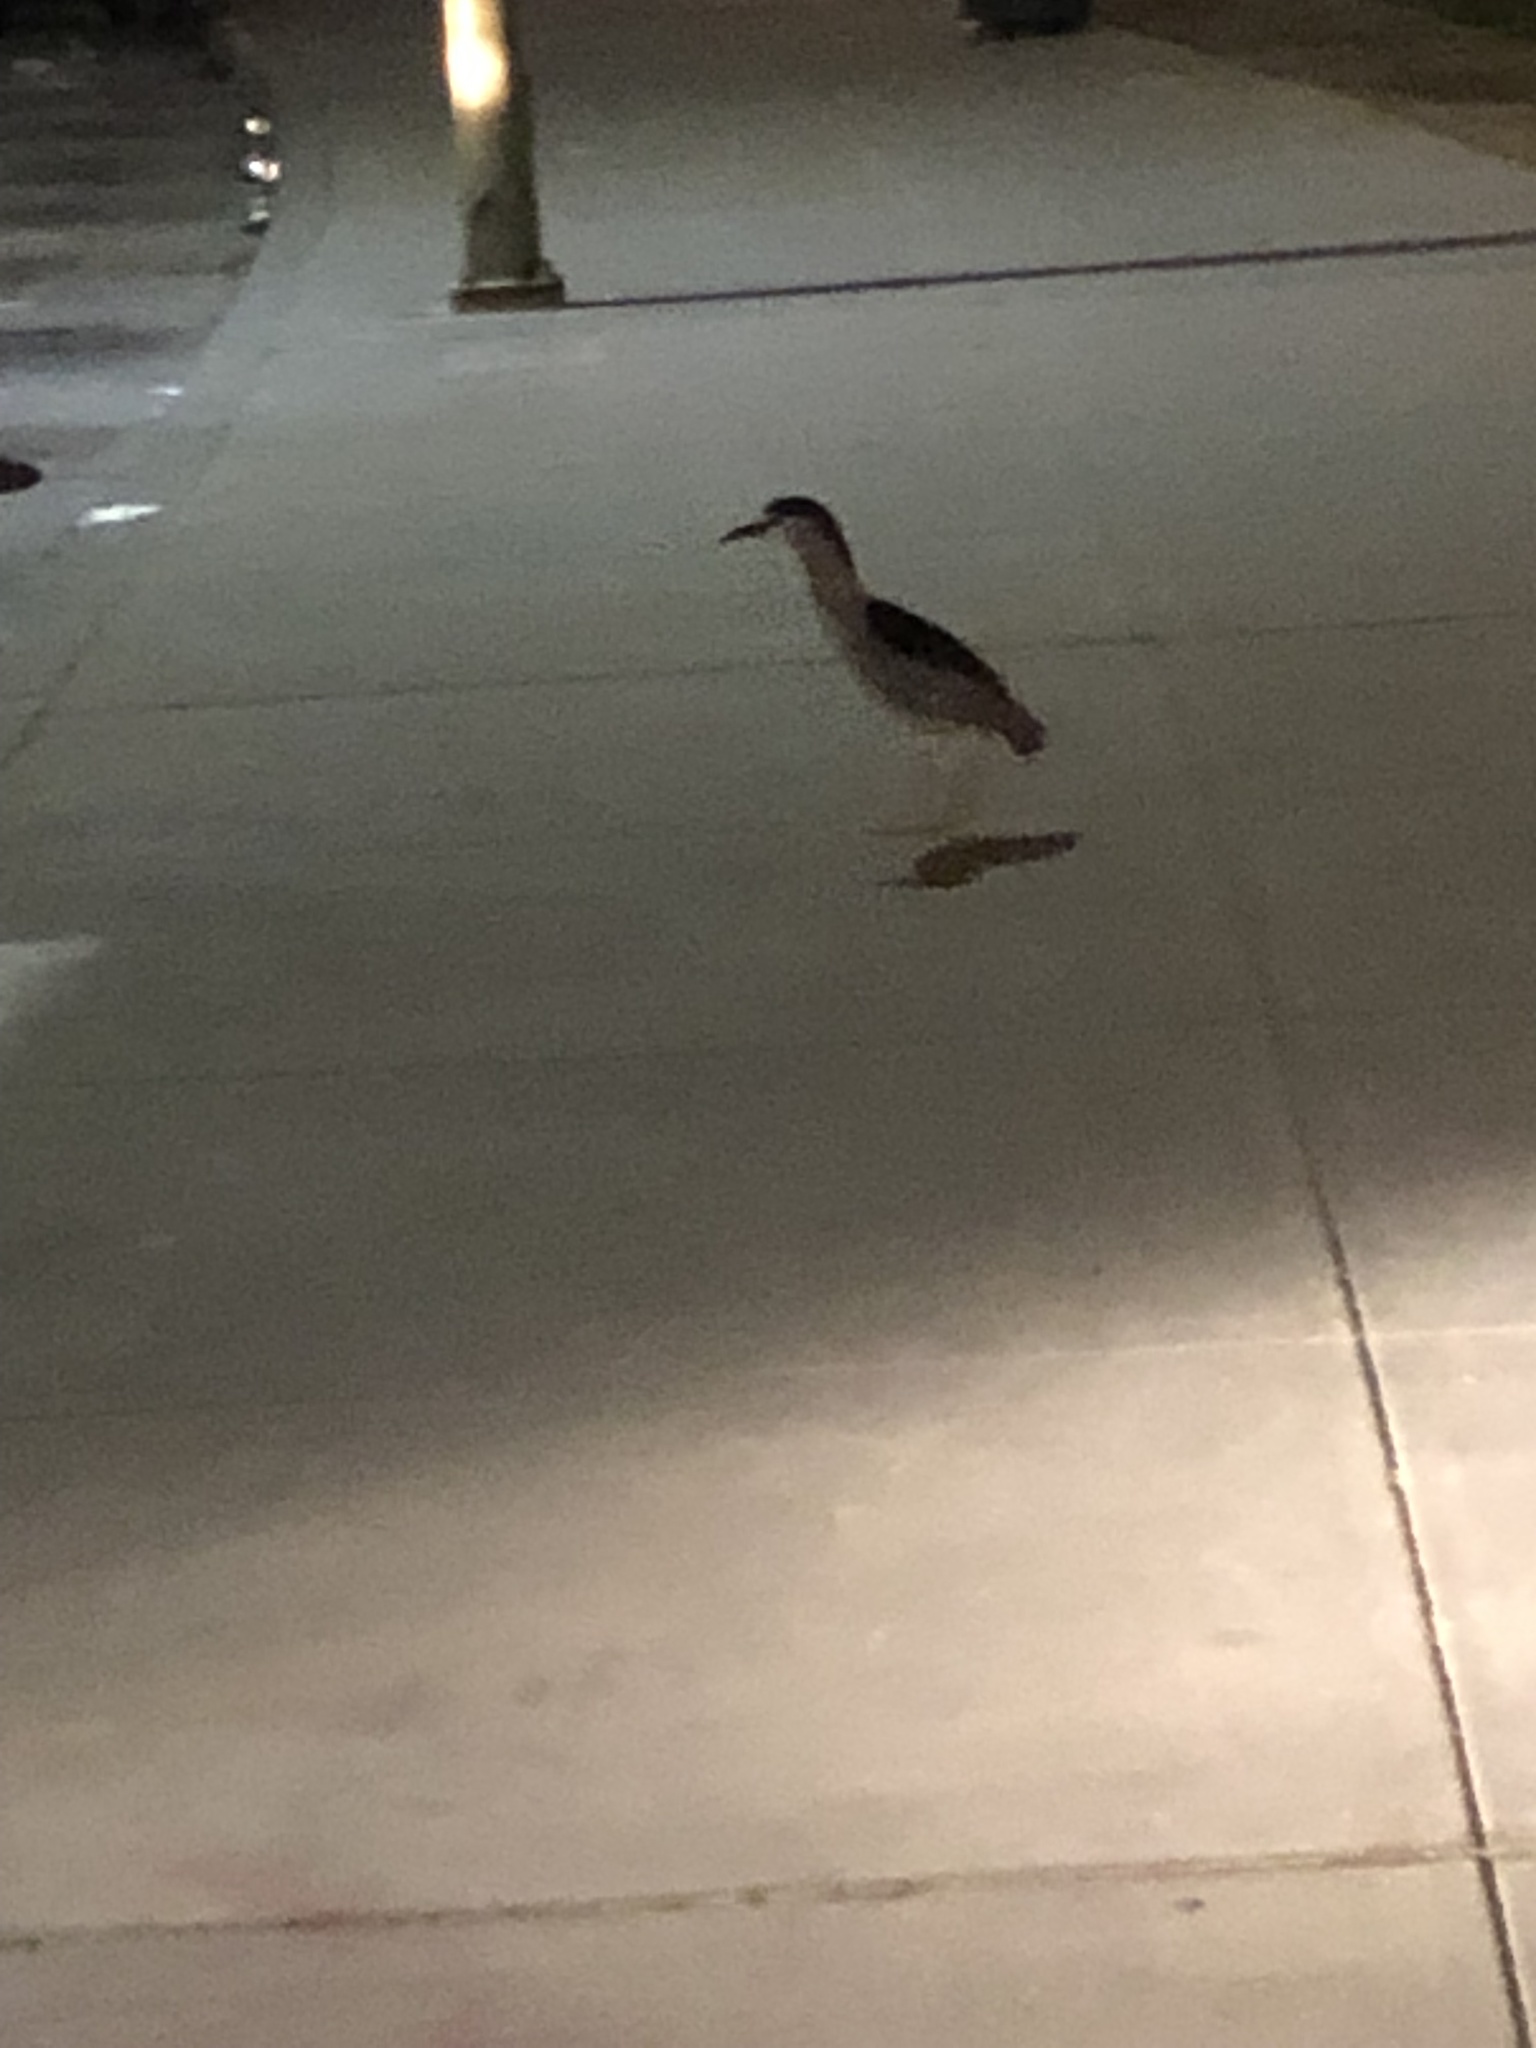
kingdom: Animalia
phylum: Chordata
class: Aves
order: Pelecaniformes
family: Ardeidae
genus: Nycticorax
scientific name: Nycticorax nycticorax
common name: Black-crowned night heron
